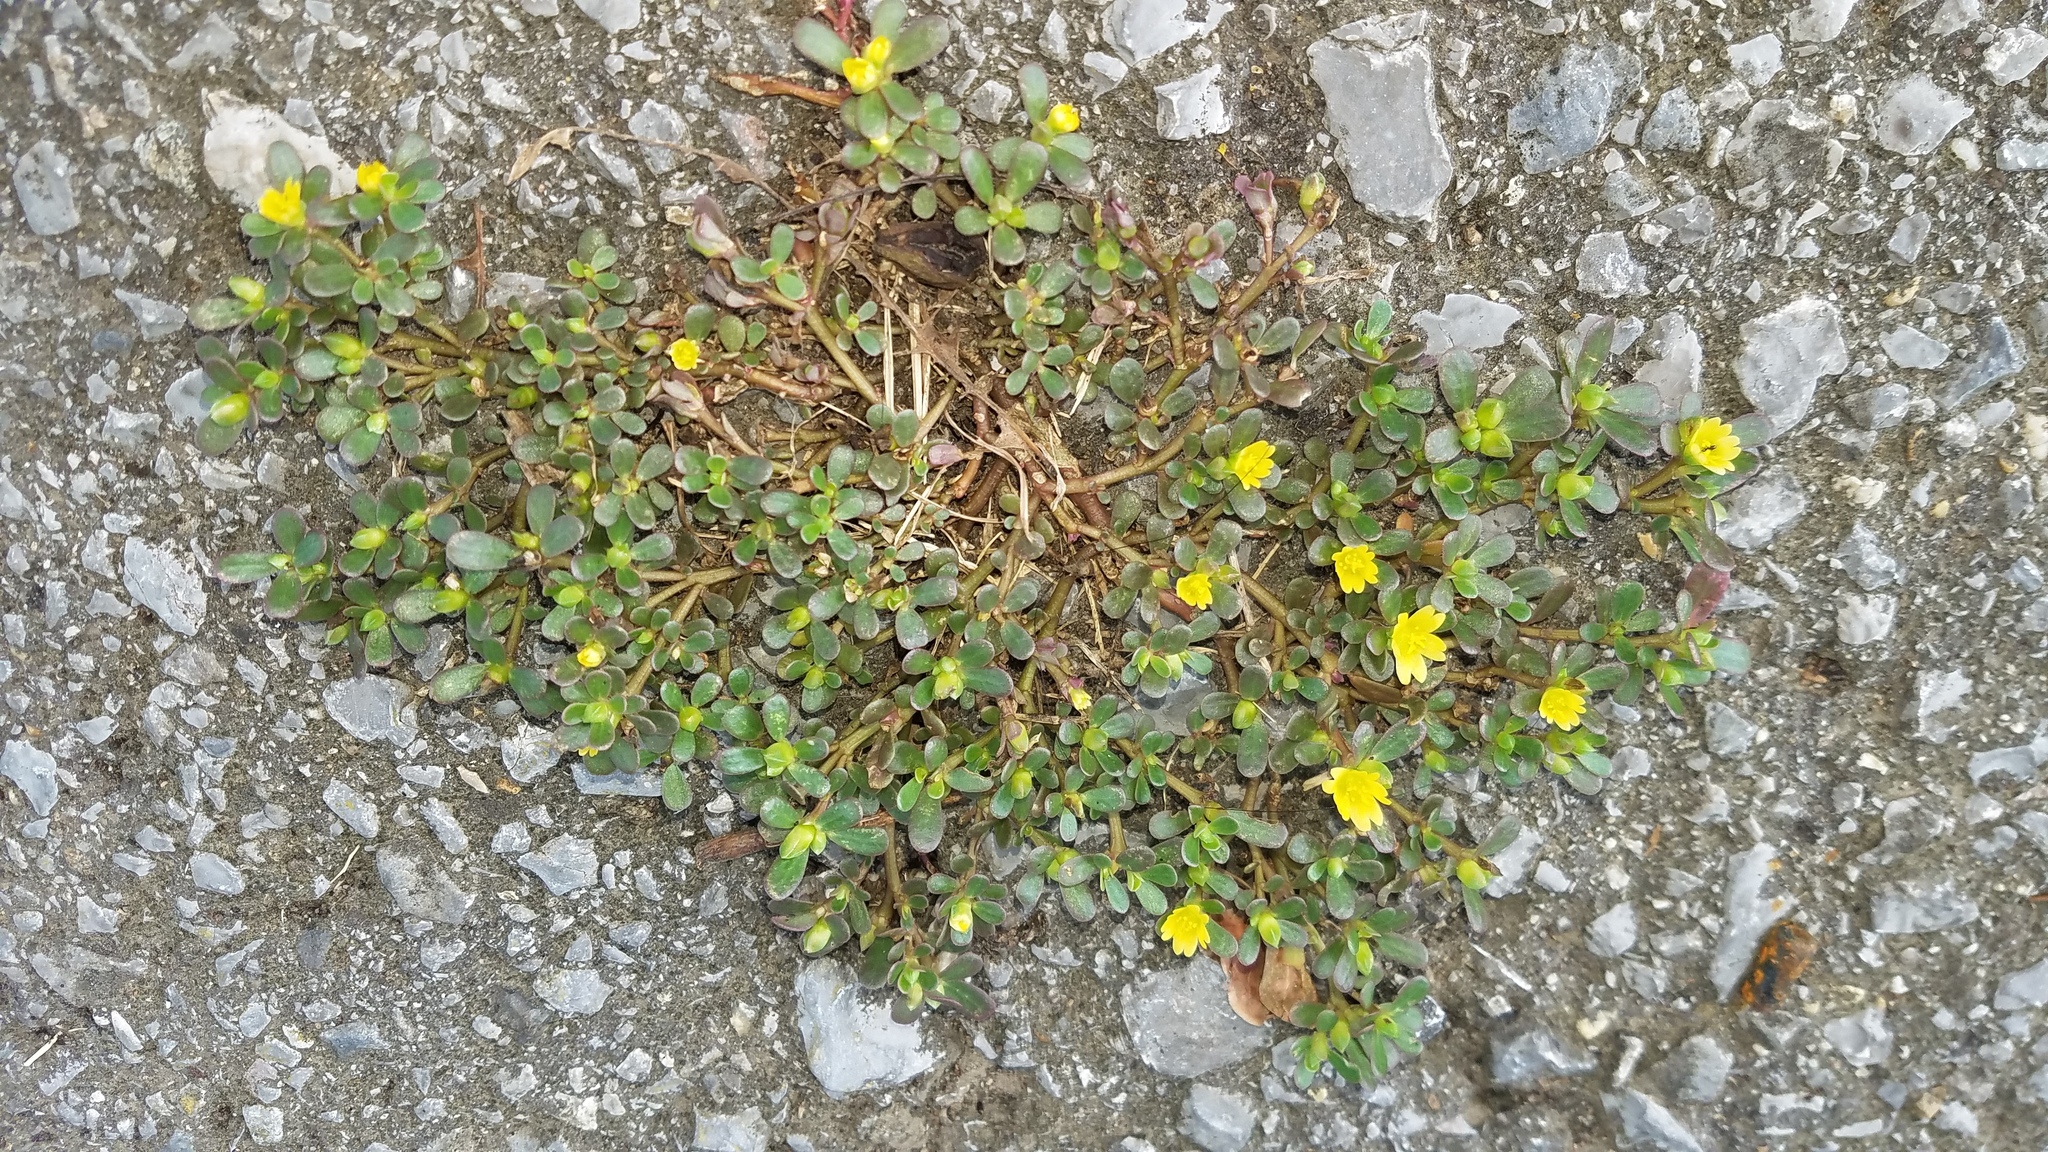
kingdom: Plantae
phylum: Tracheophyta
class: Magnoliopsida
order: Caryophyllales
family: Portulacaceae
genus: Portulaca
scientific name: Portulaca oleracea
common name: Common purslane
